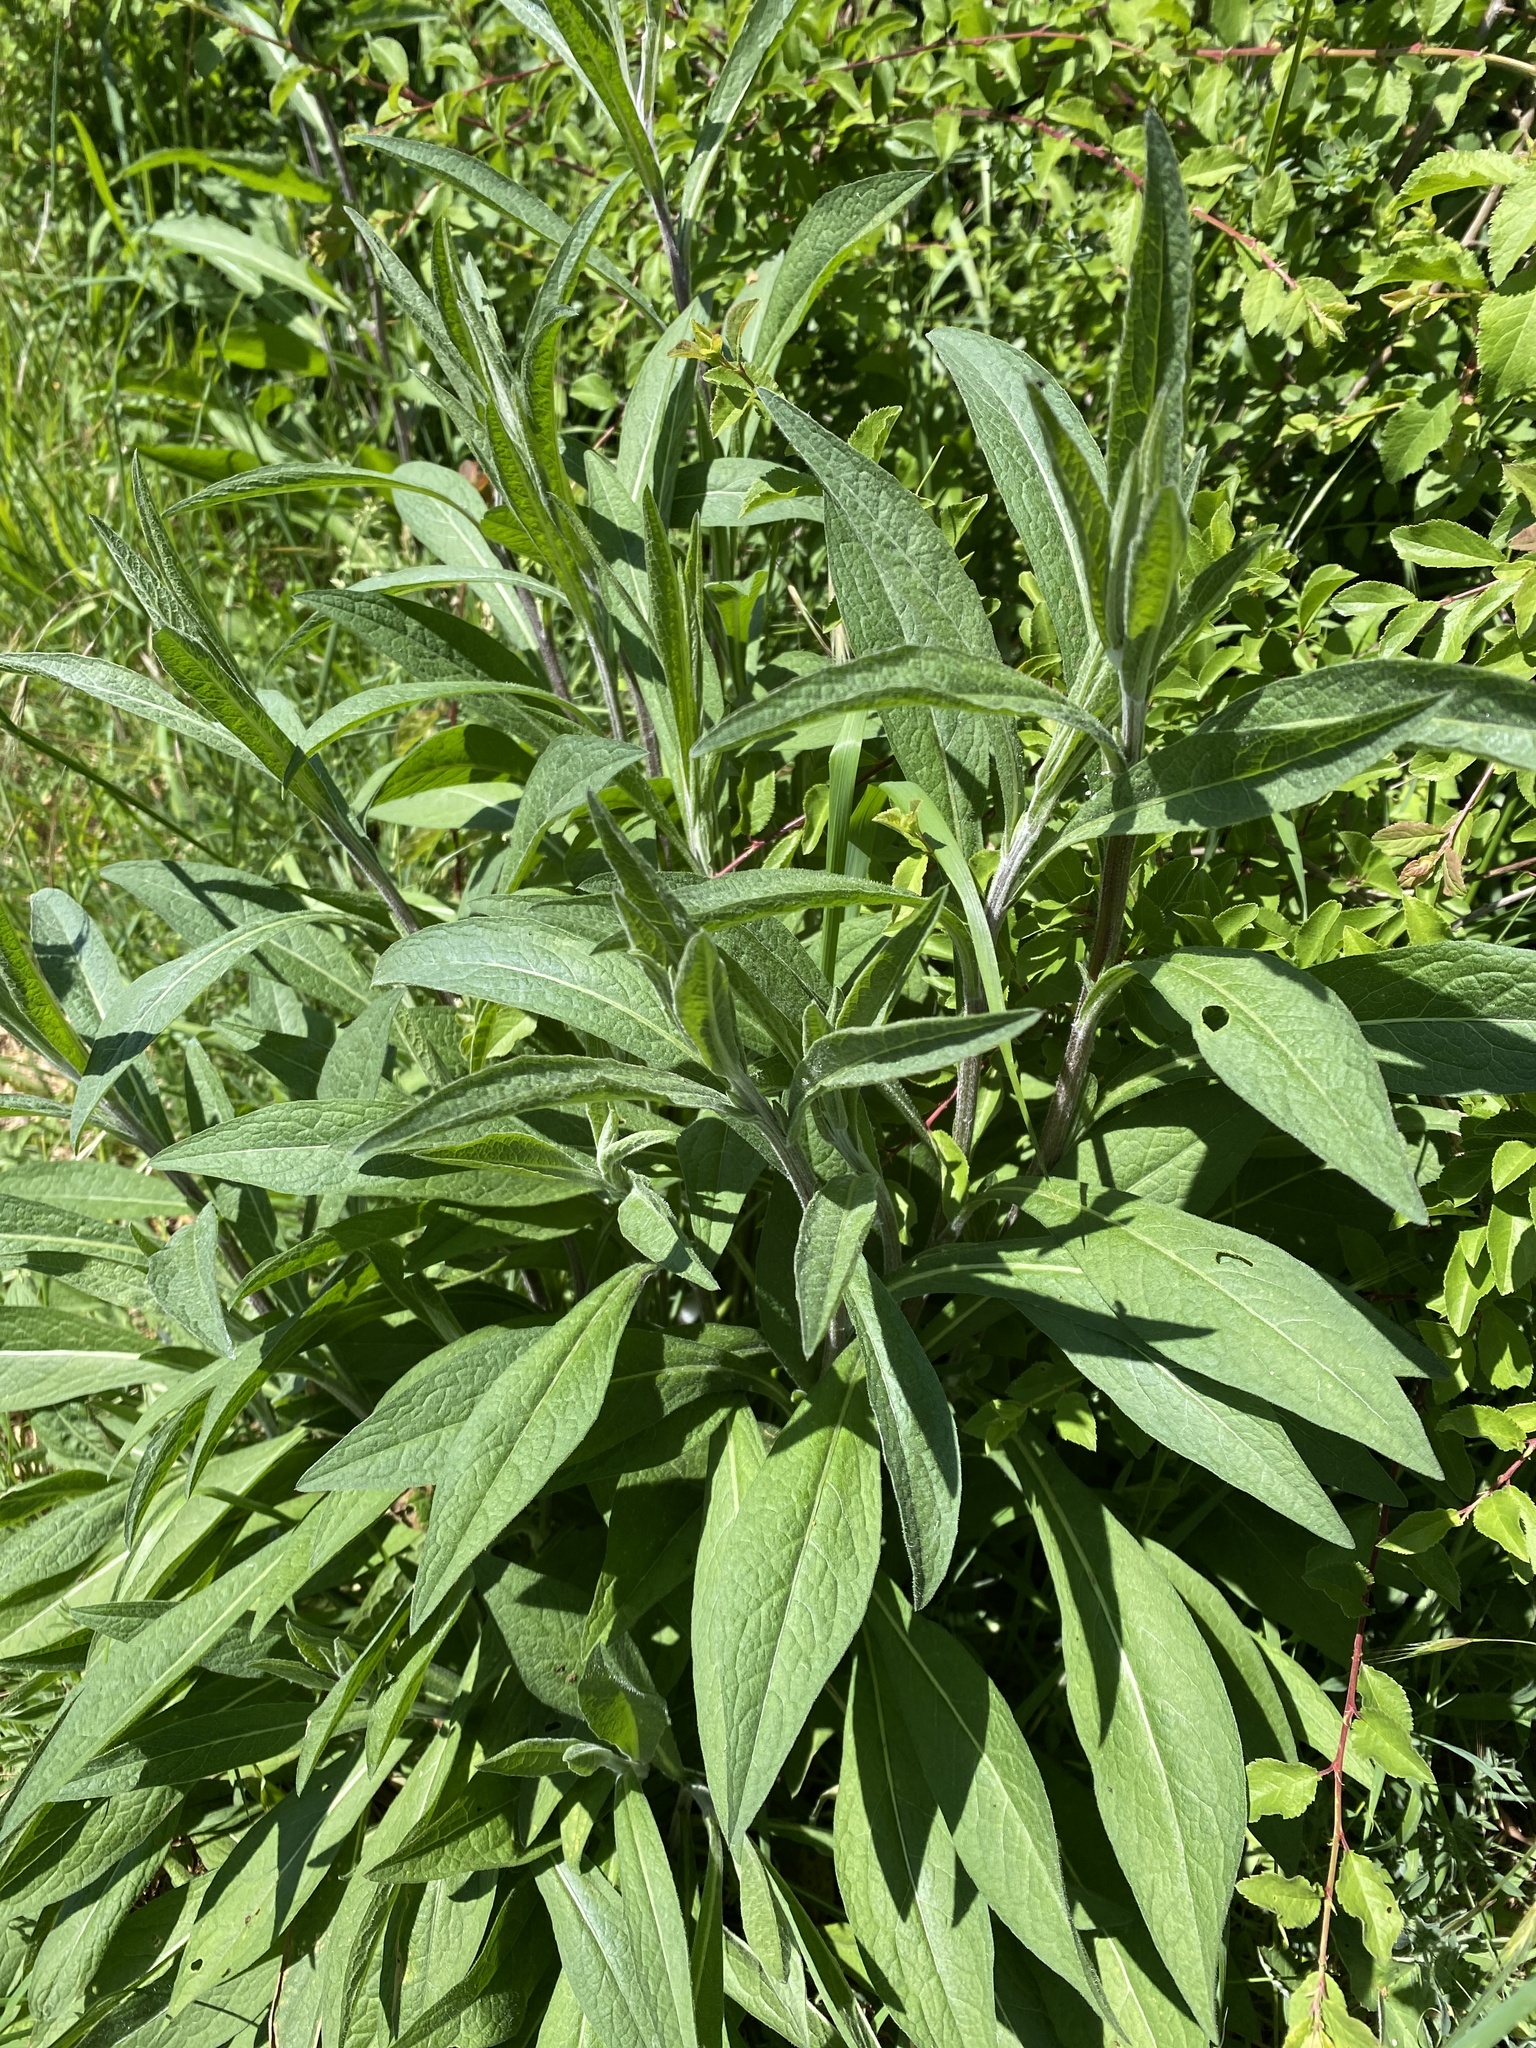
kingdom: Plantae
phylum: Tracheophyta
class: Magnoliopsida
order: Asterales
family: Asteraceae
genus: Centaurea
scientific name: Centaurea nigra
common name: Lesser knapweed
